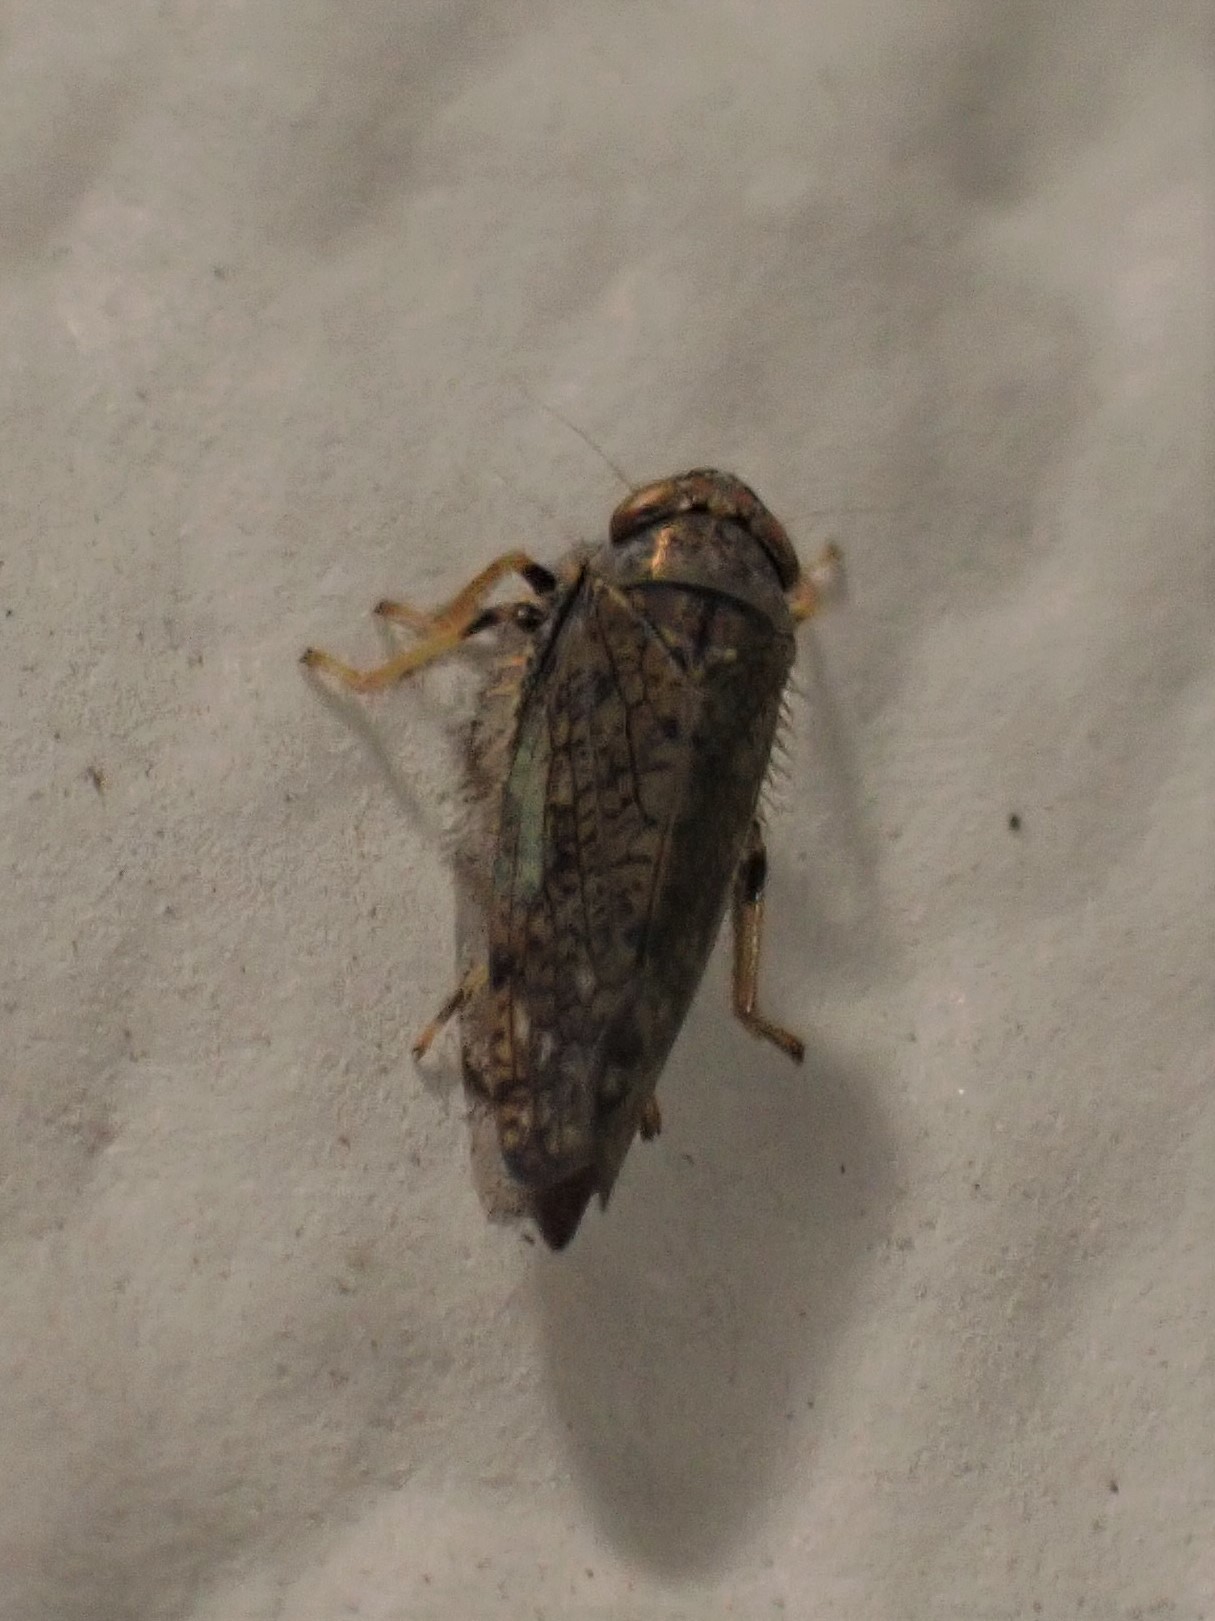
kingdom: Animalia
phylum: Arthropoda
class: Insecta
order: Hemiptera
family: Cicadellidae
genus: Orientus
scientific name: Orientus ishidae
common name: Japanese leafhopper
